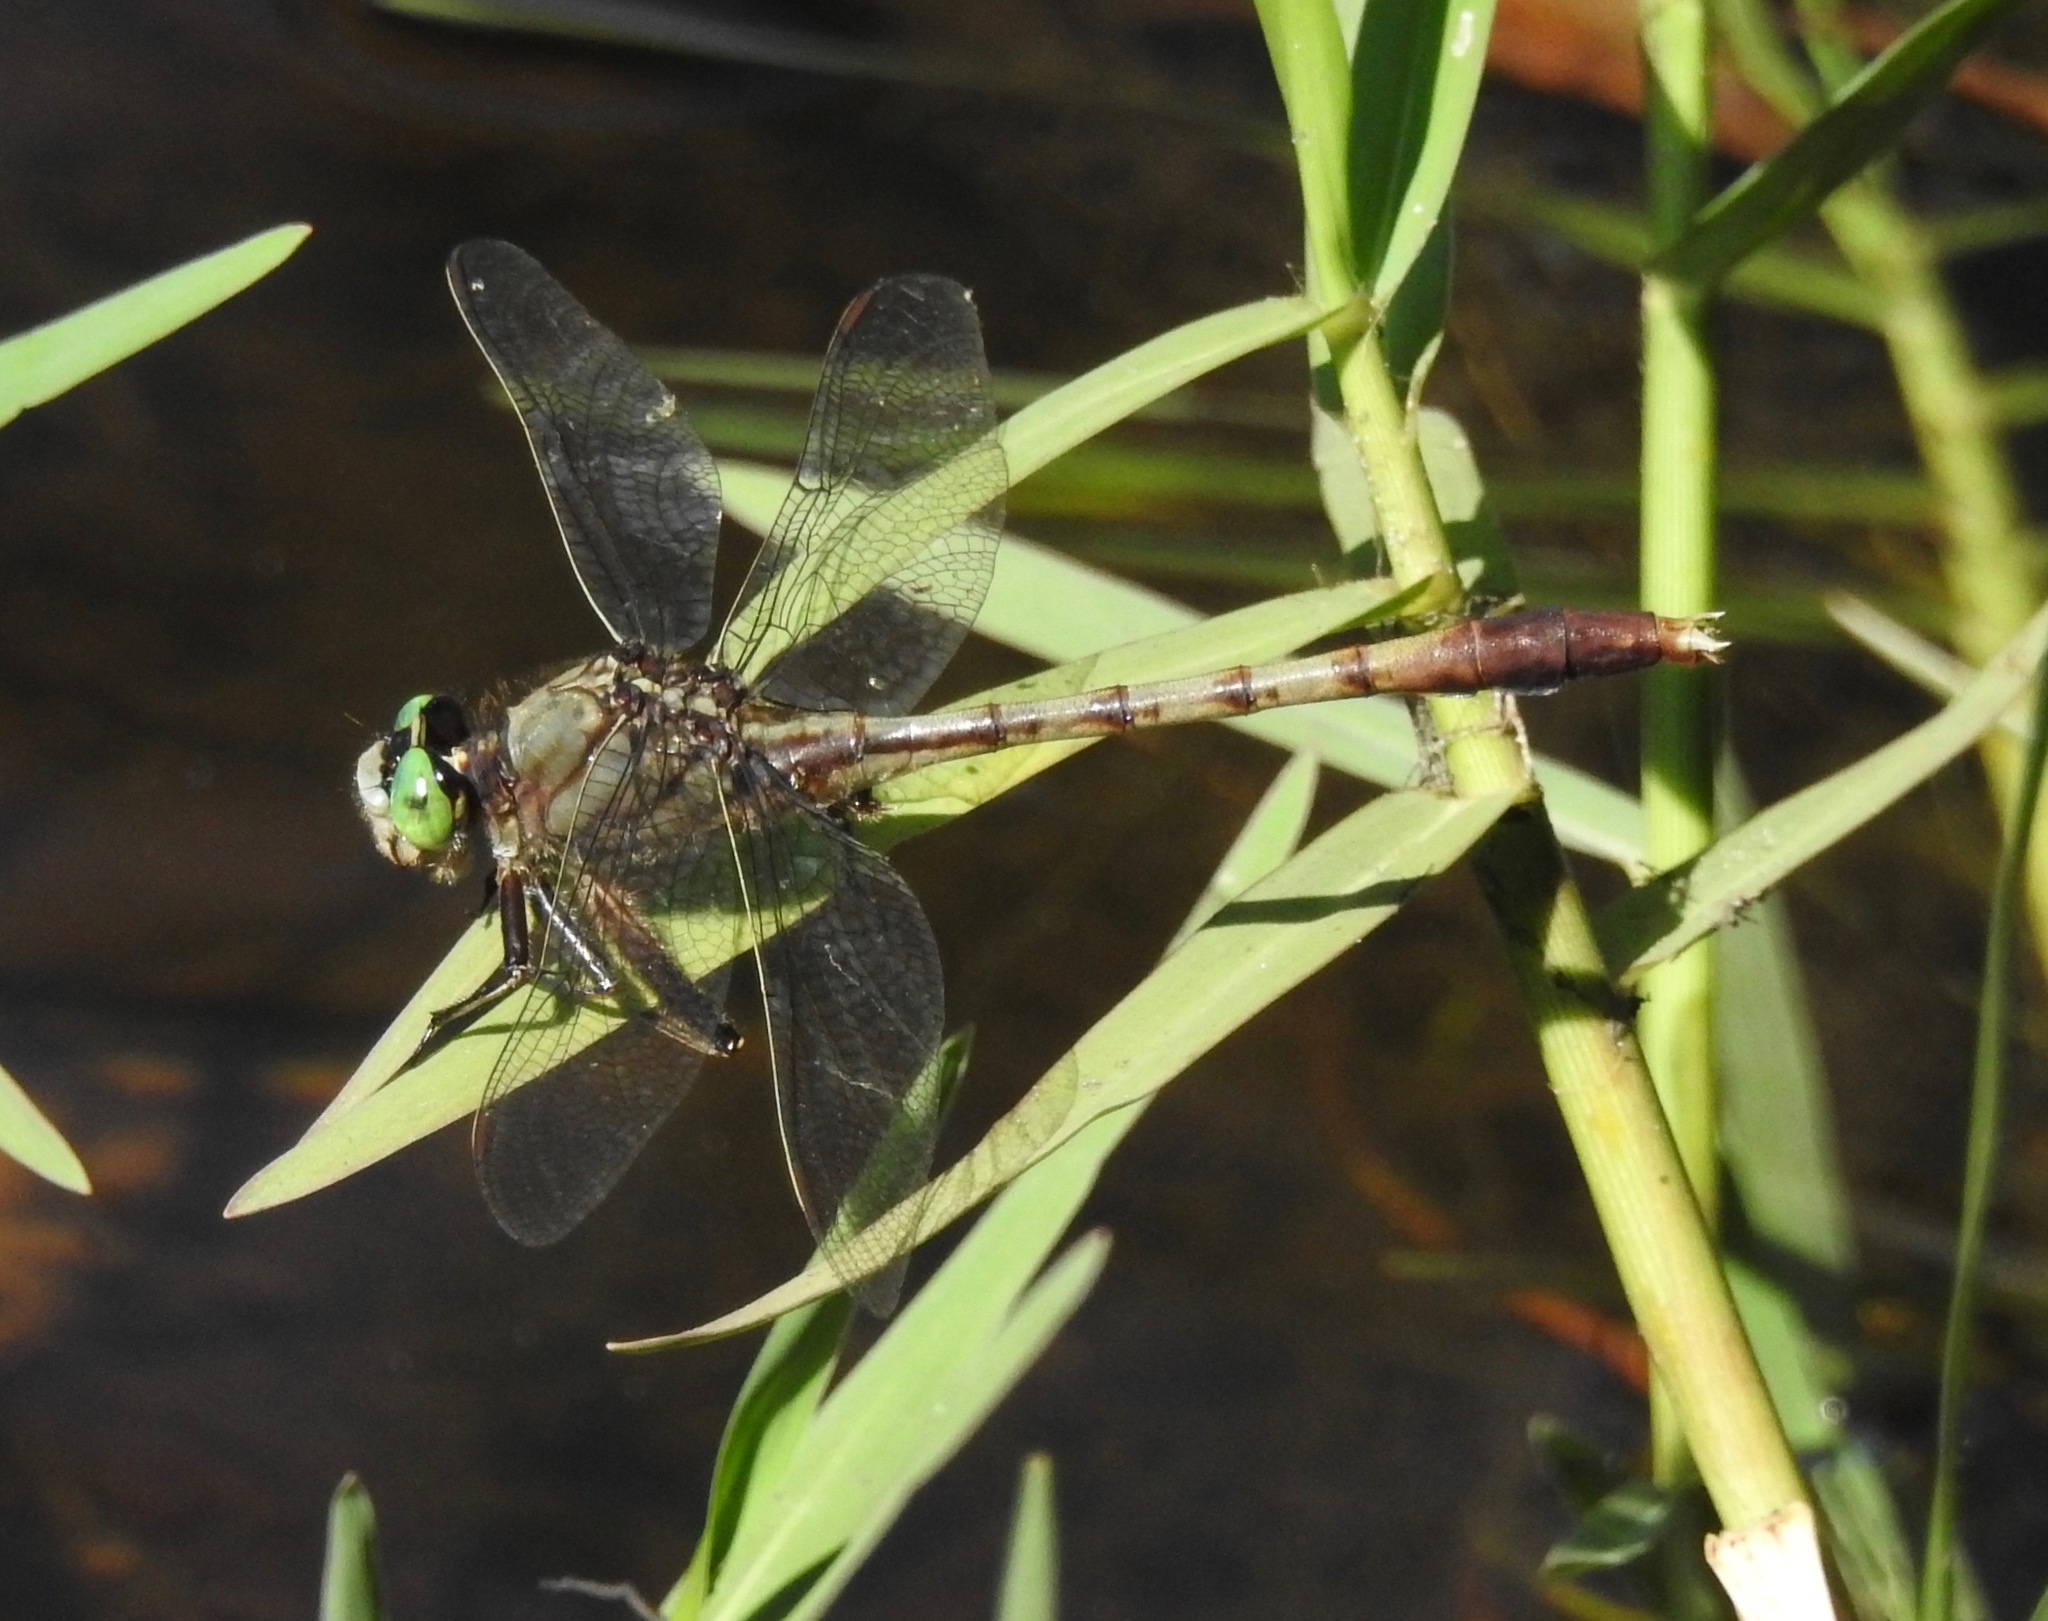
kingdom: Animalia
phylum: Arthropoda
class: Insecta
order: Odonata
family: Gomphidae
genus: Arigomphus
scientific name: Arigomphus pallidus
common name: Gray-green clubtail
